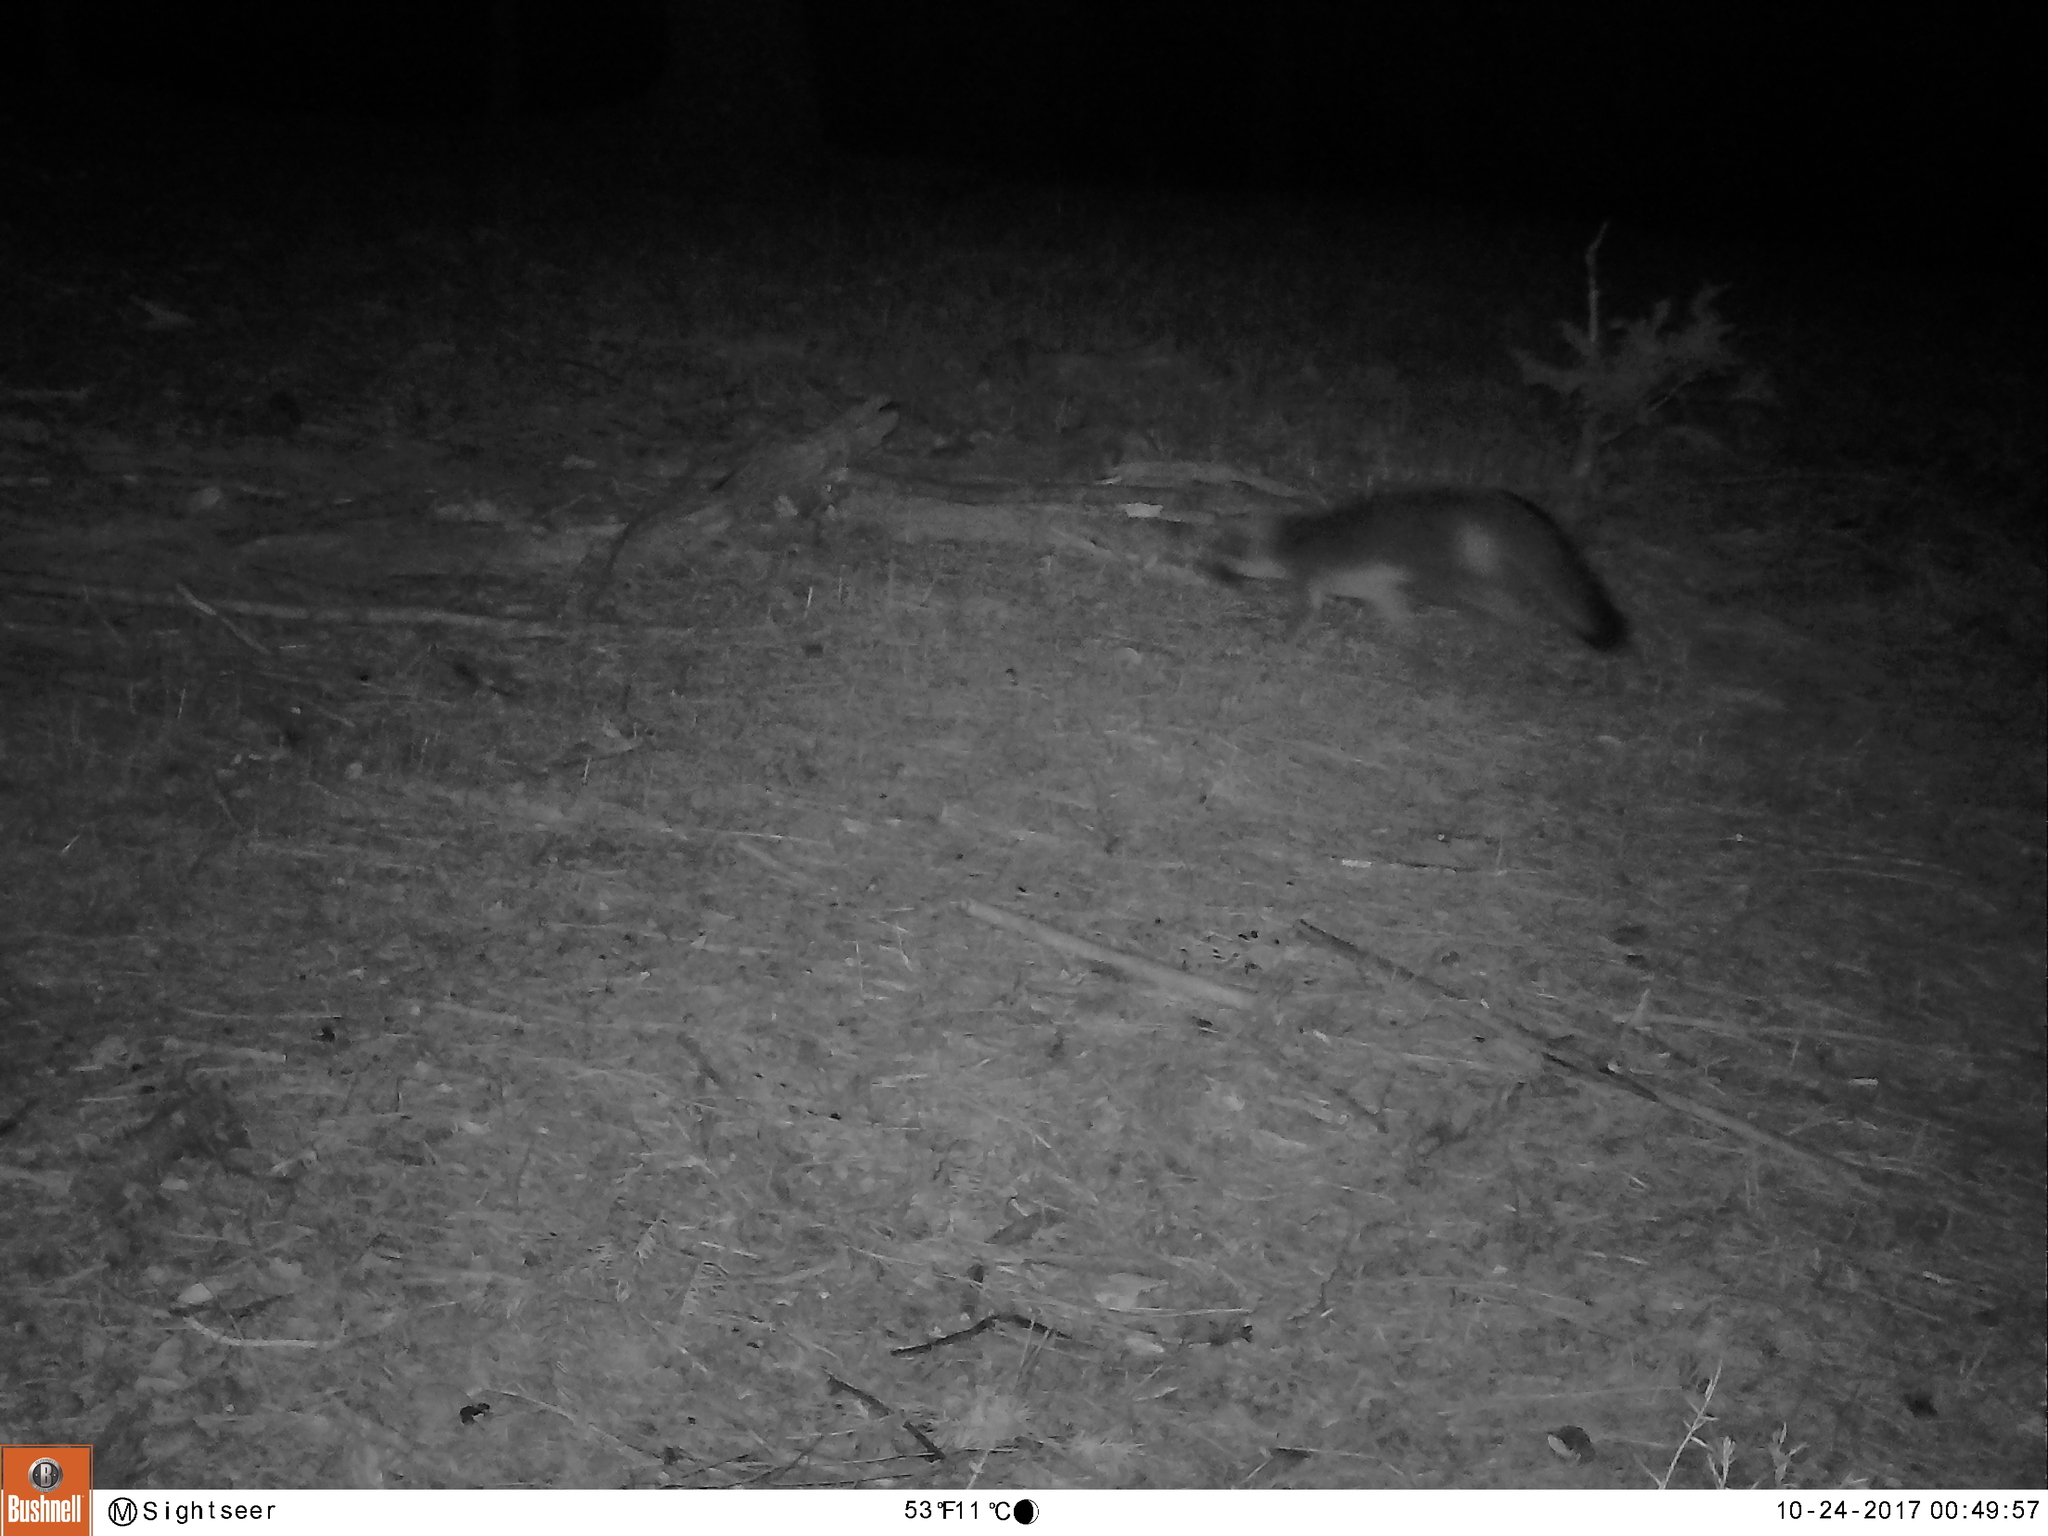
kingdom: Animalia
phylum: Chordata
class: Mammalia
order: Carnivora
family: Canidae
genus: Urocyon
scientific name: Urocyon cinereoargenteus
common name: Gray fox
